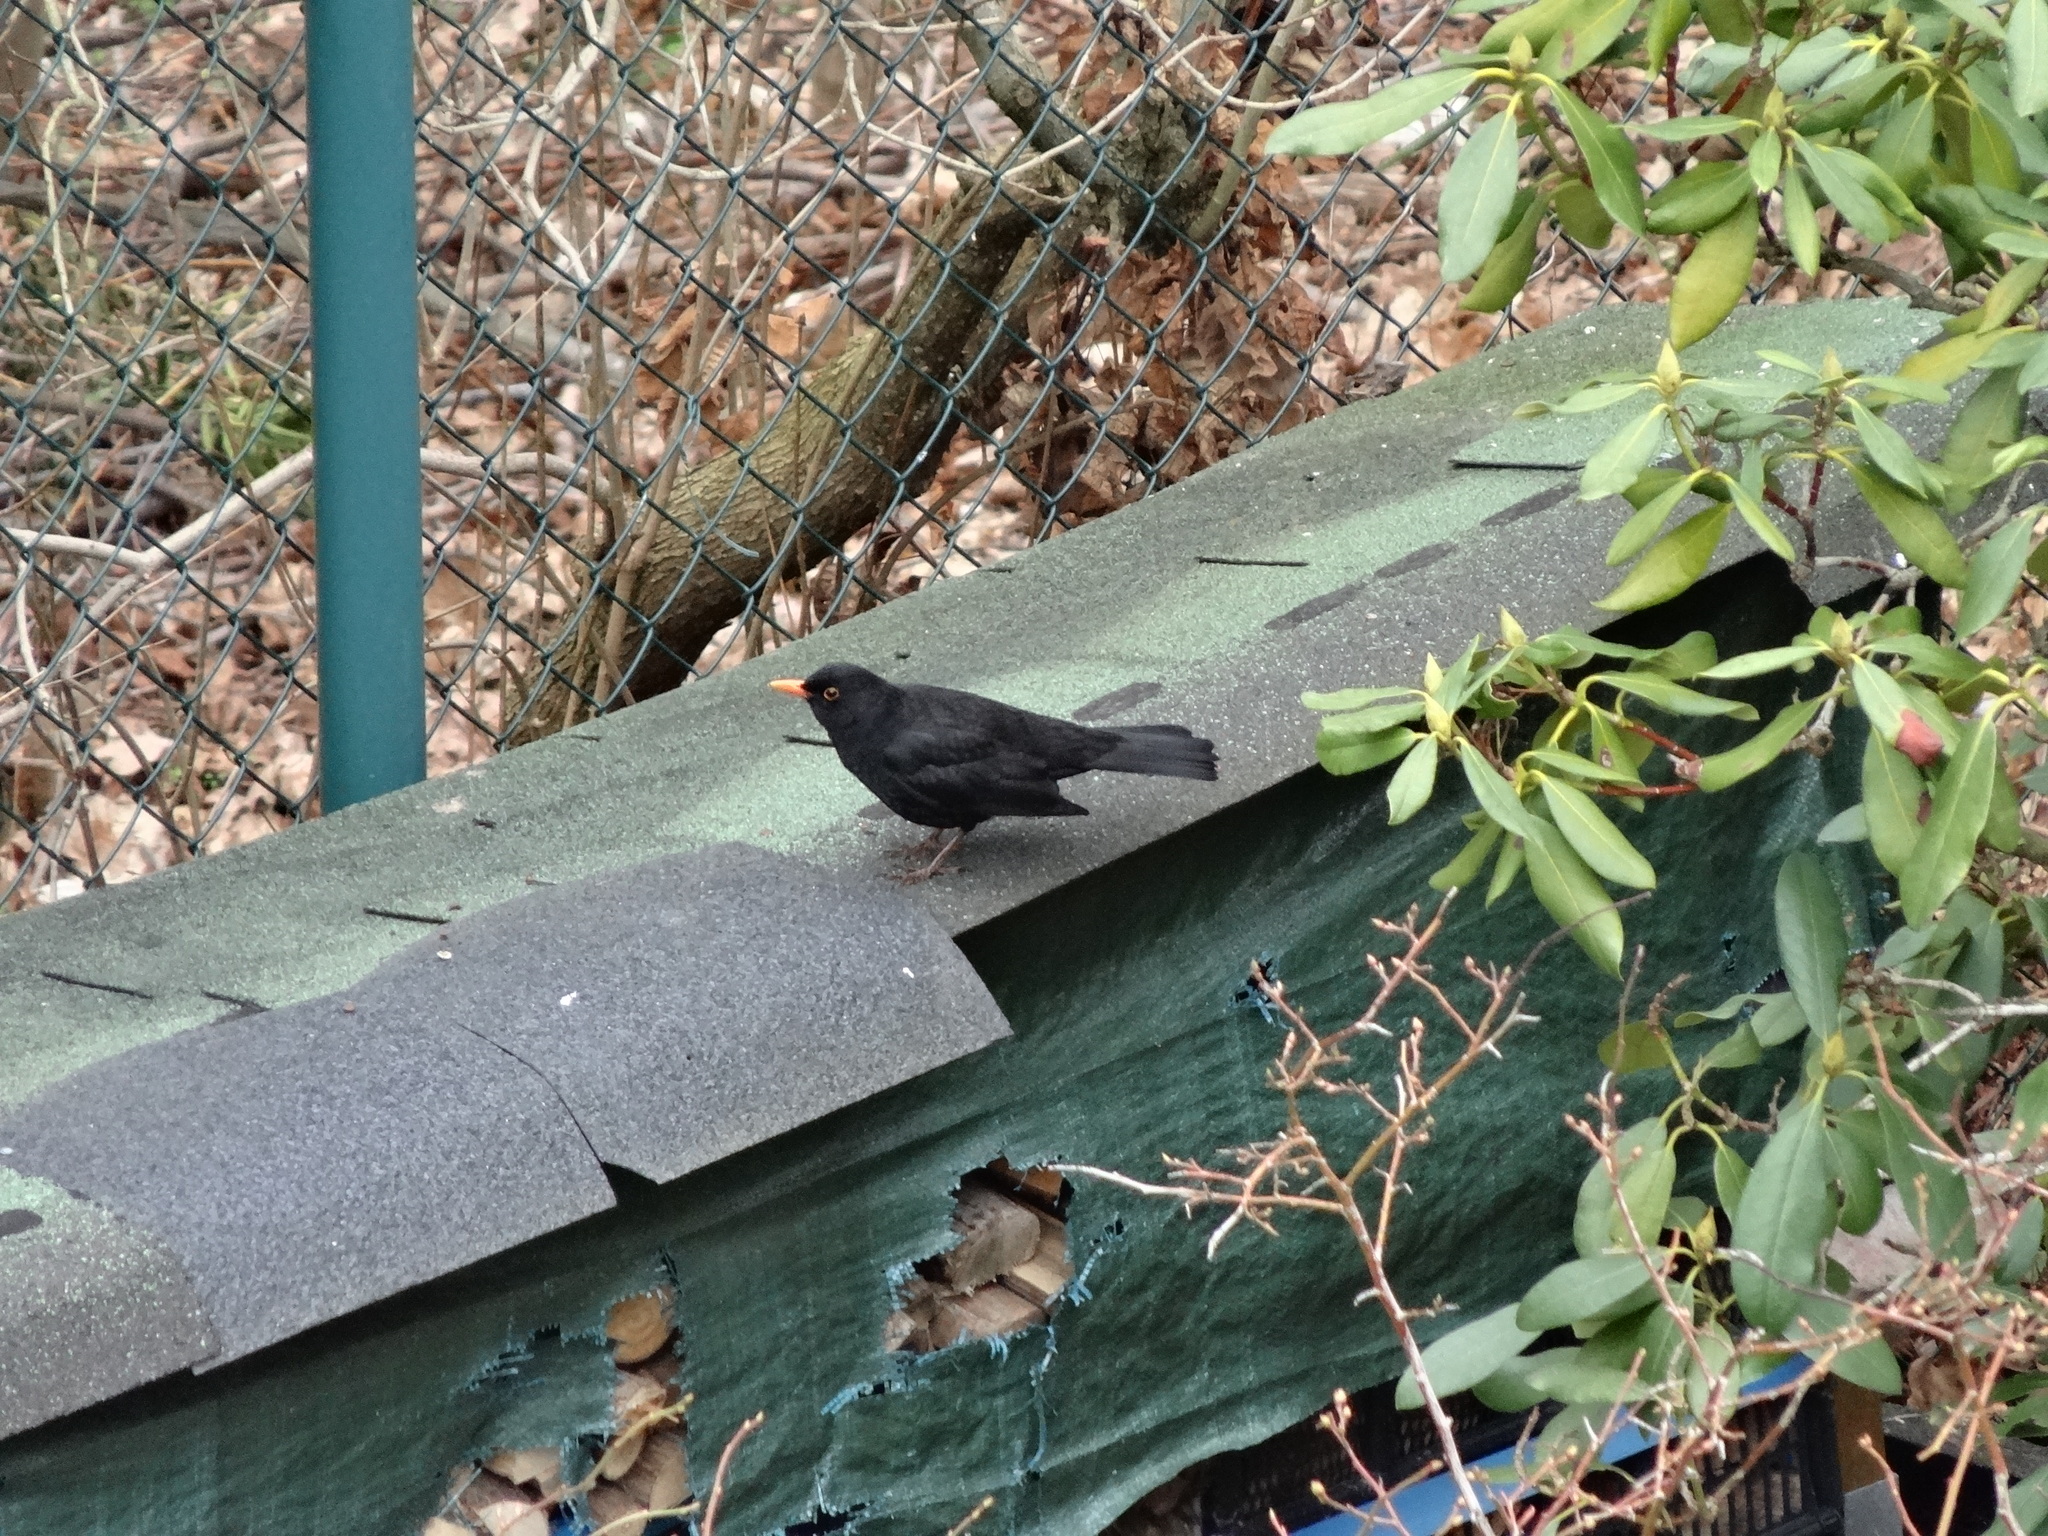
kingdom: Animalia
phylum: Chordata
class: Aves
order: Passeriformes
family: Turdidae
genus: Turdus
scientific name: Turdus merula
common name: Common blackbird
